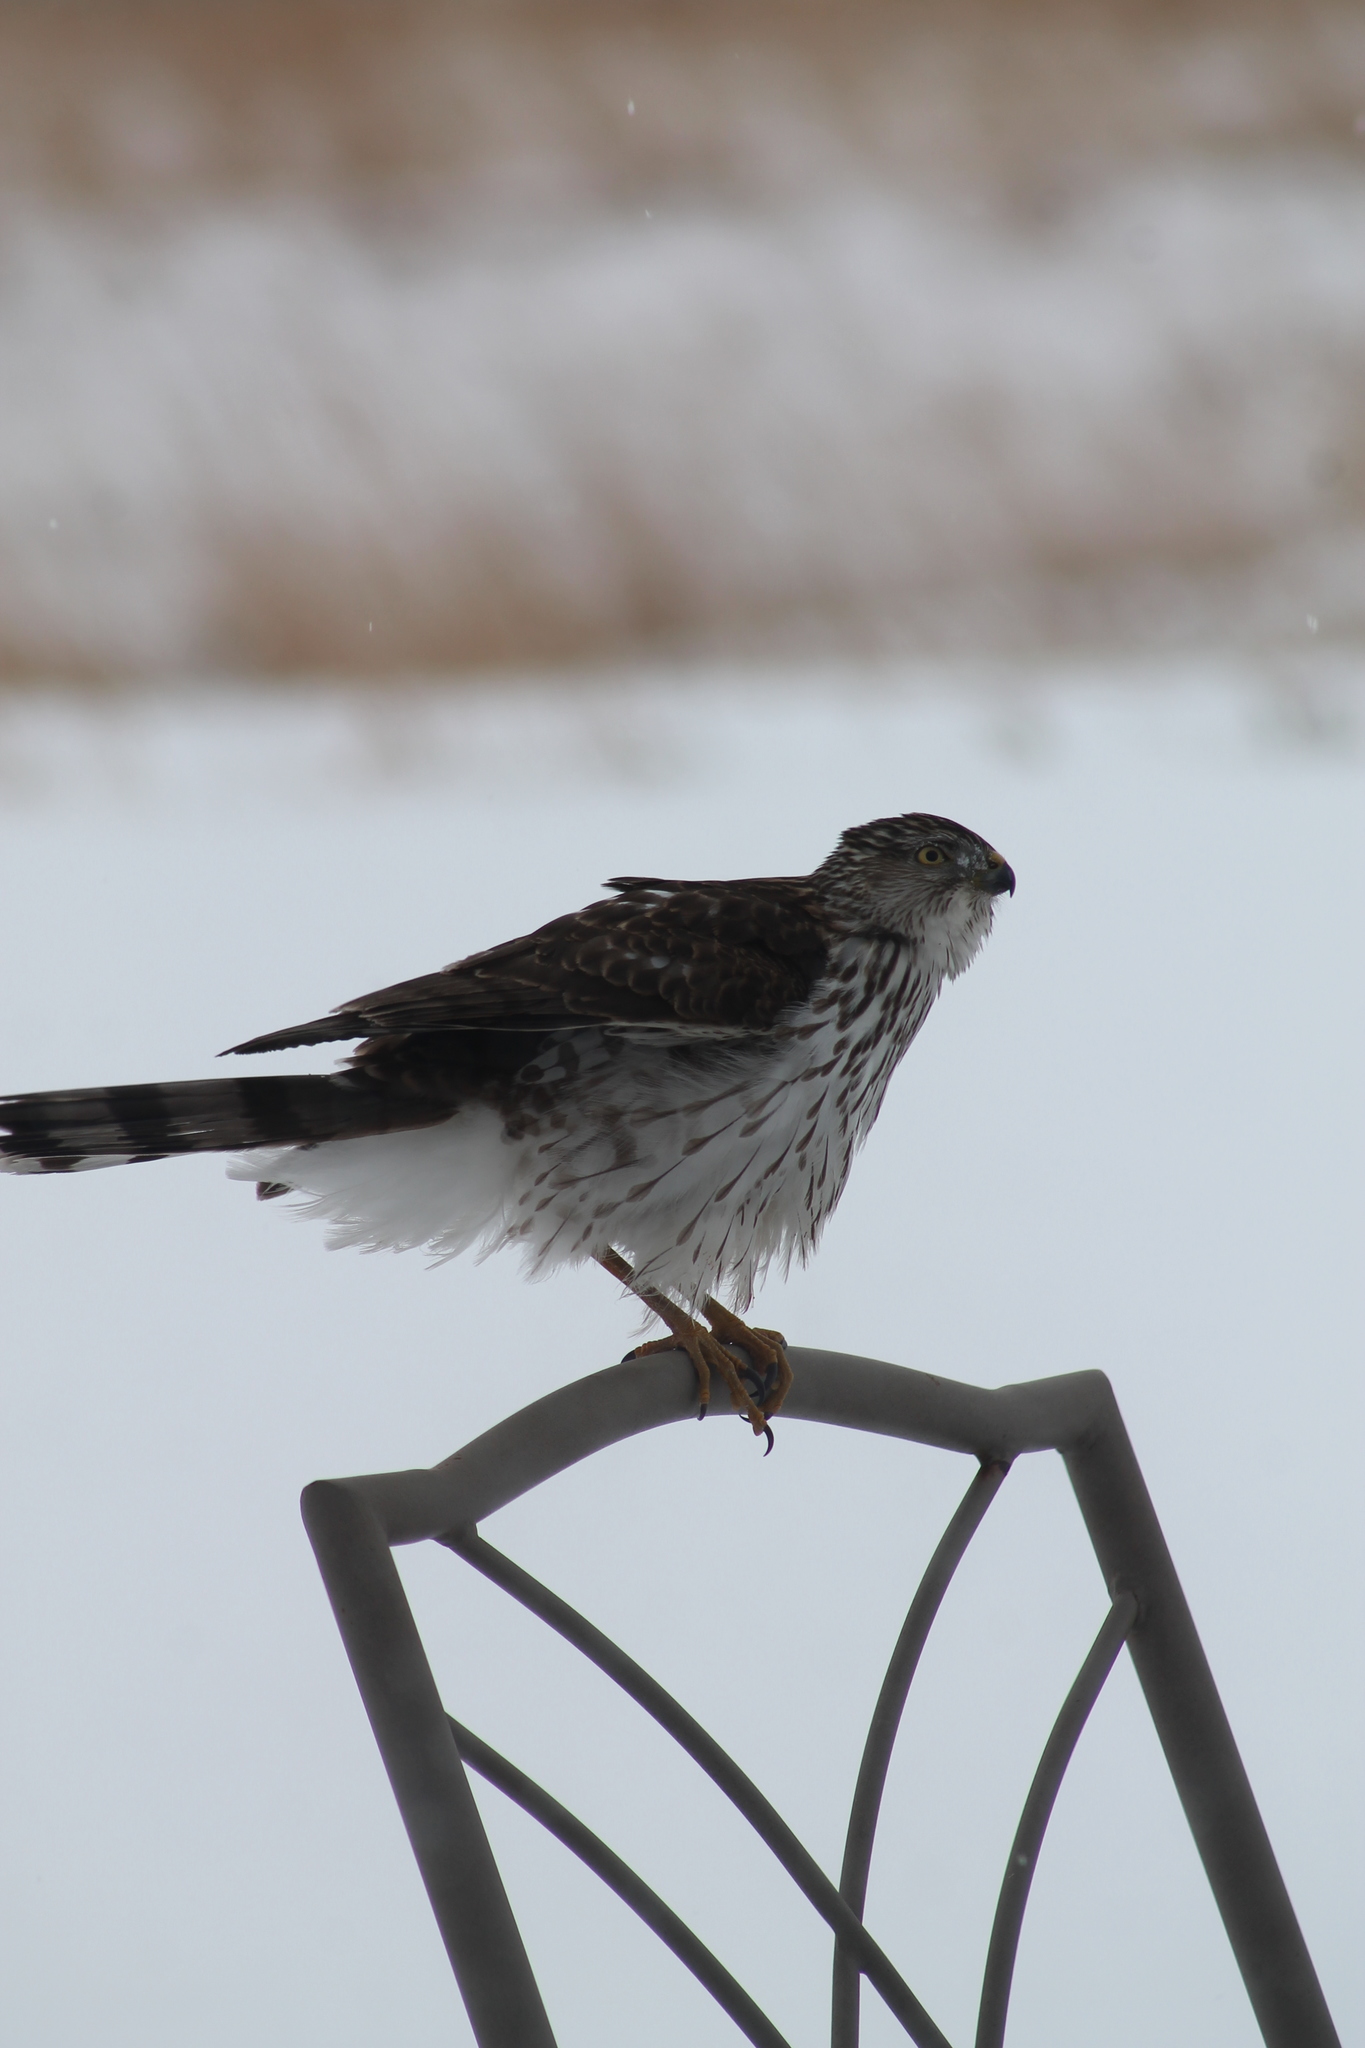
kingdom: Animalia
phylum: Chordata
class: Aves
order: Accipitriformes
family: Accipitridae
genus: Accipiter
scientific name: Accipiter cooperii
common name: Cooper's hawk
